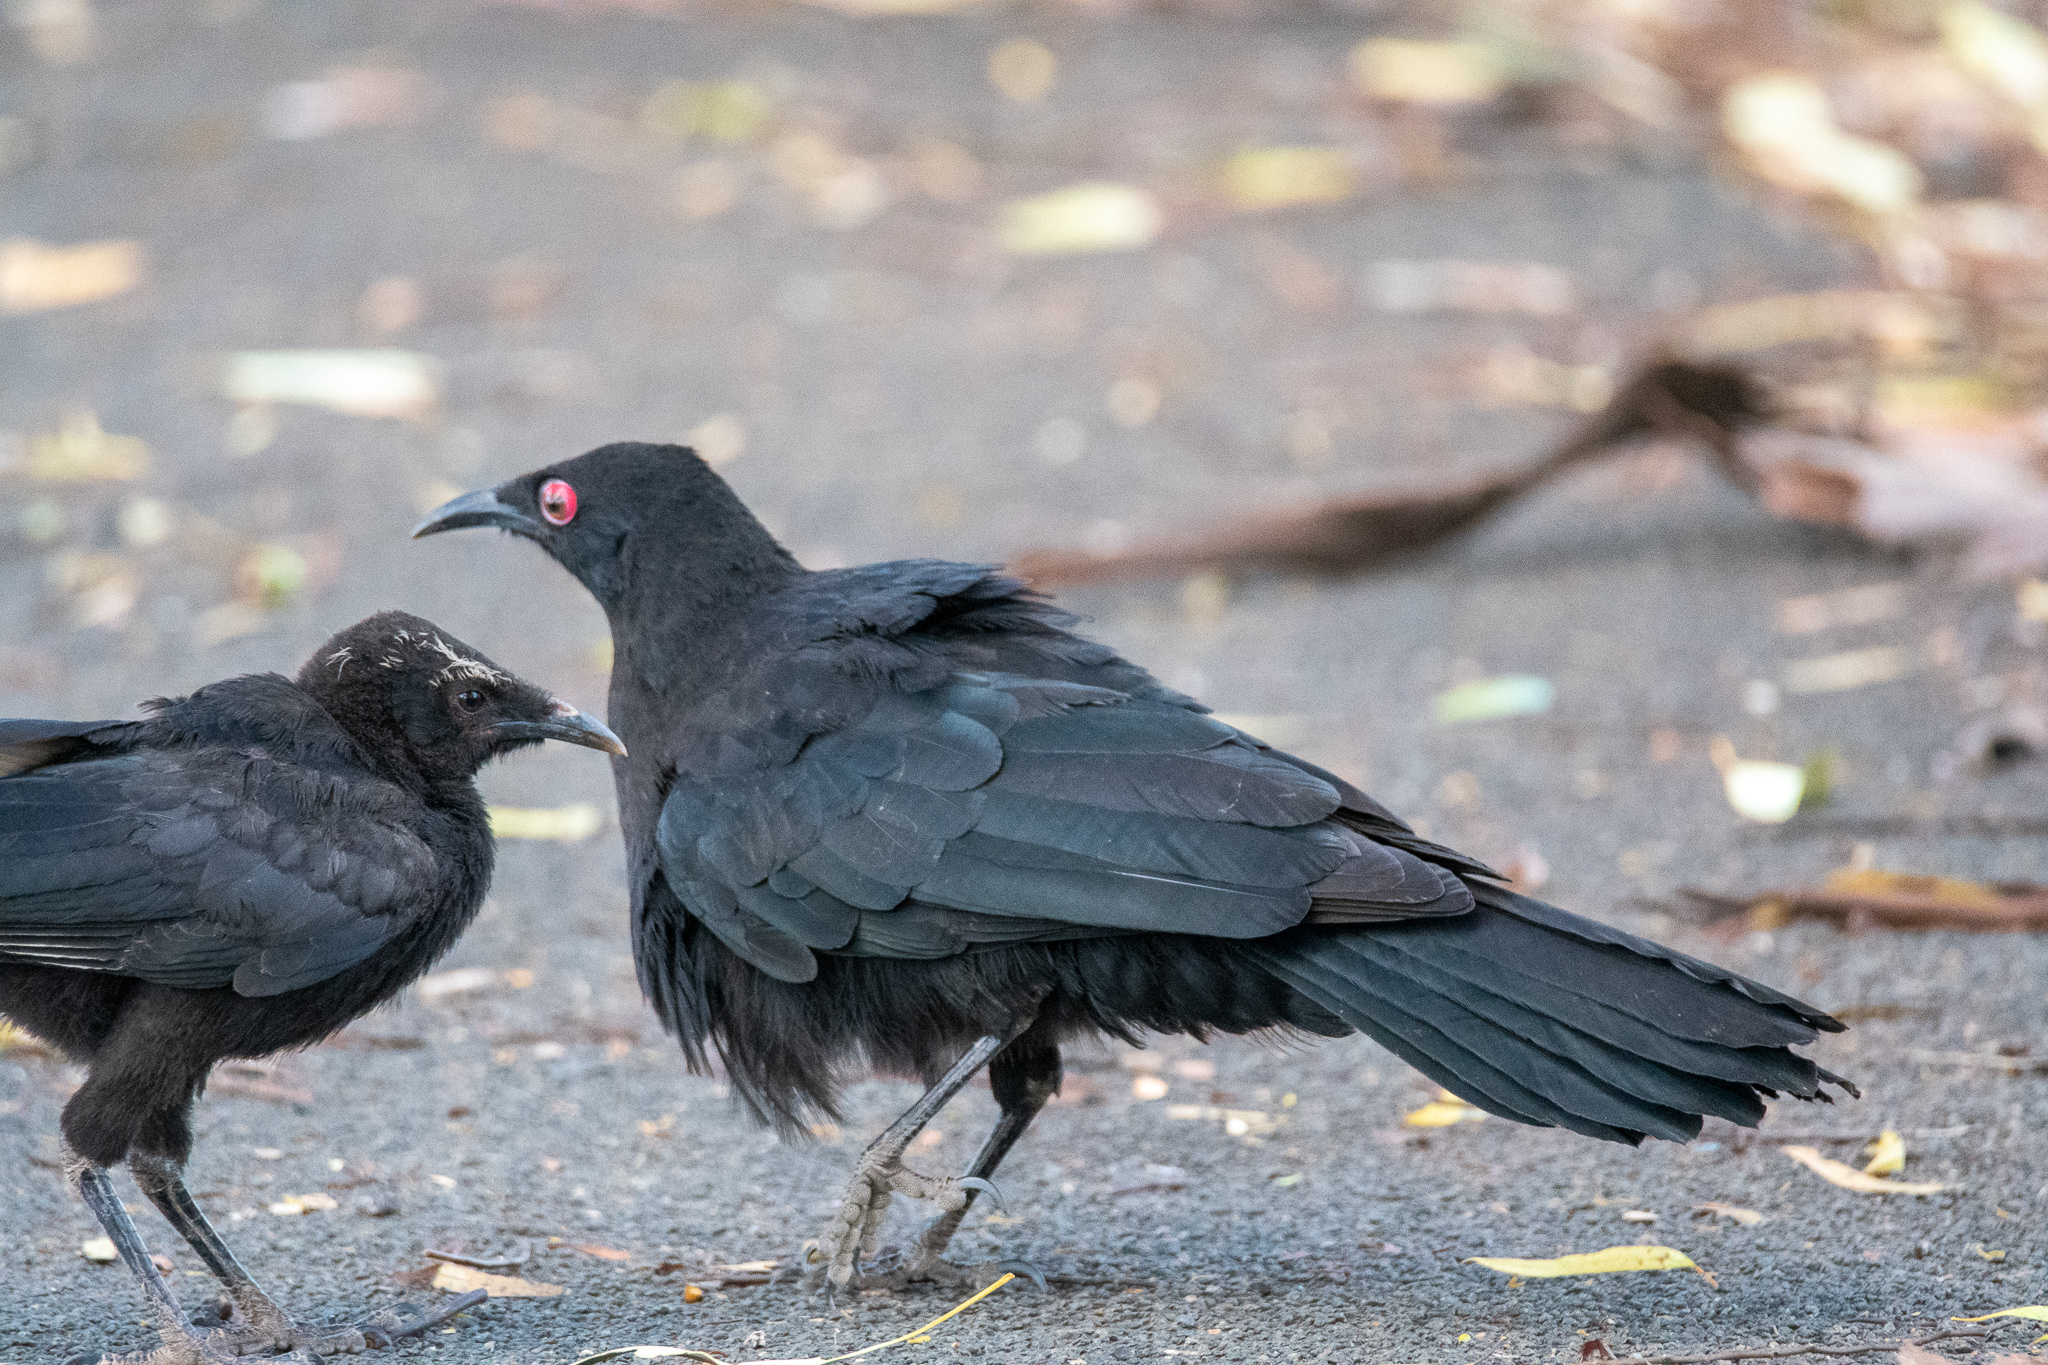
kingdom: Animalia
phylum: Chordata
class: Aves
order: Passeriformes
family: Corcoracidae
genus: Corcorax
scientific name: Corcorax melanoramphos
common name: White-winged chough
